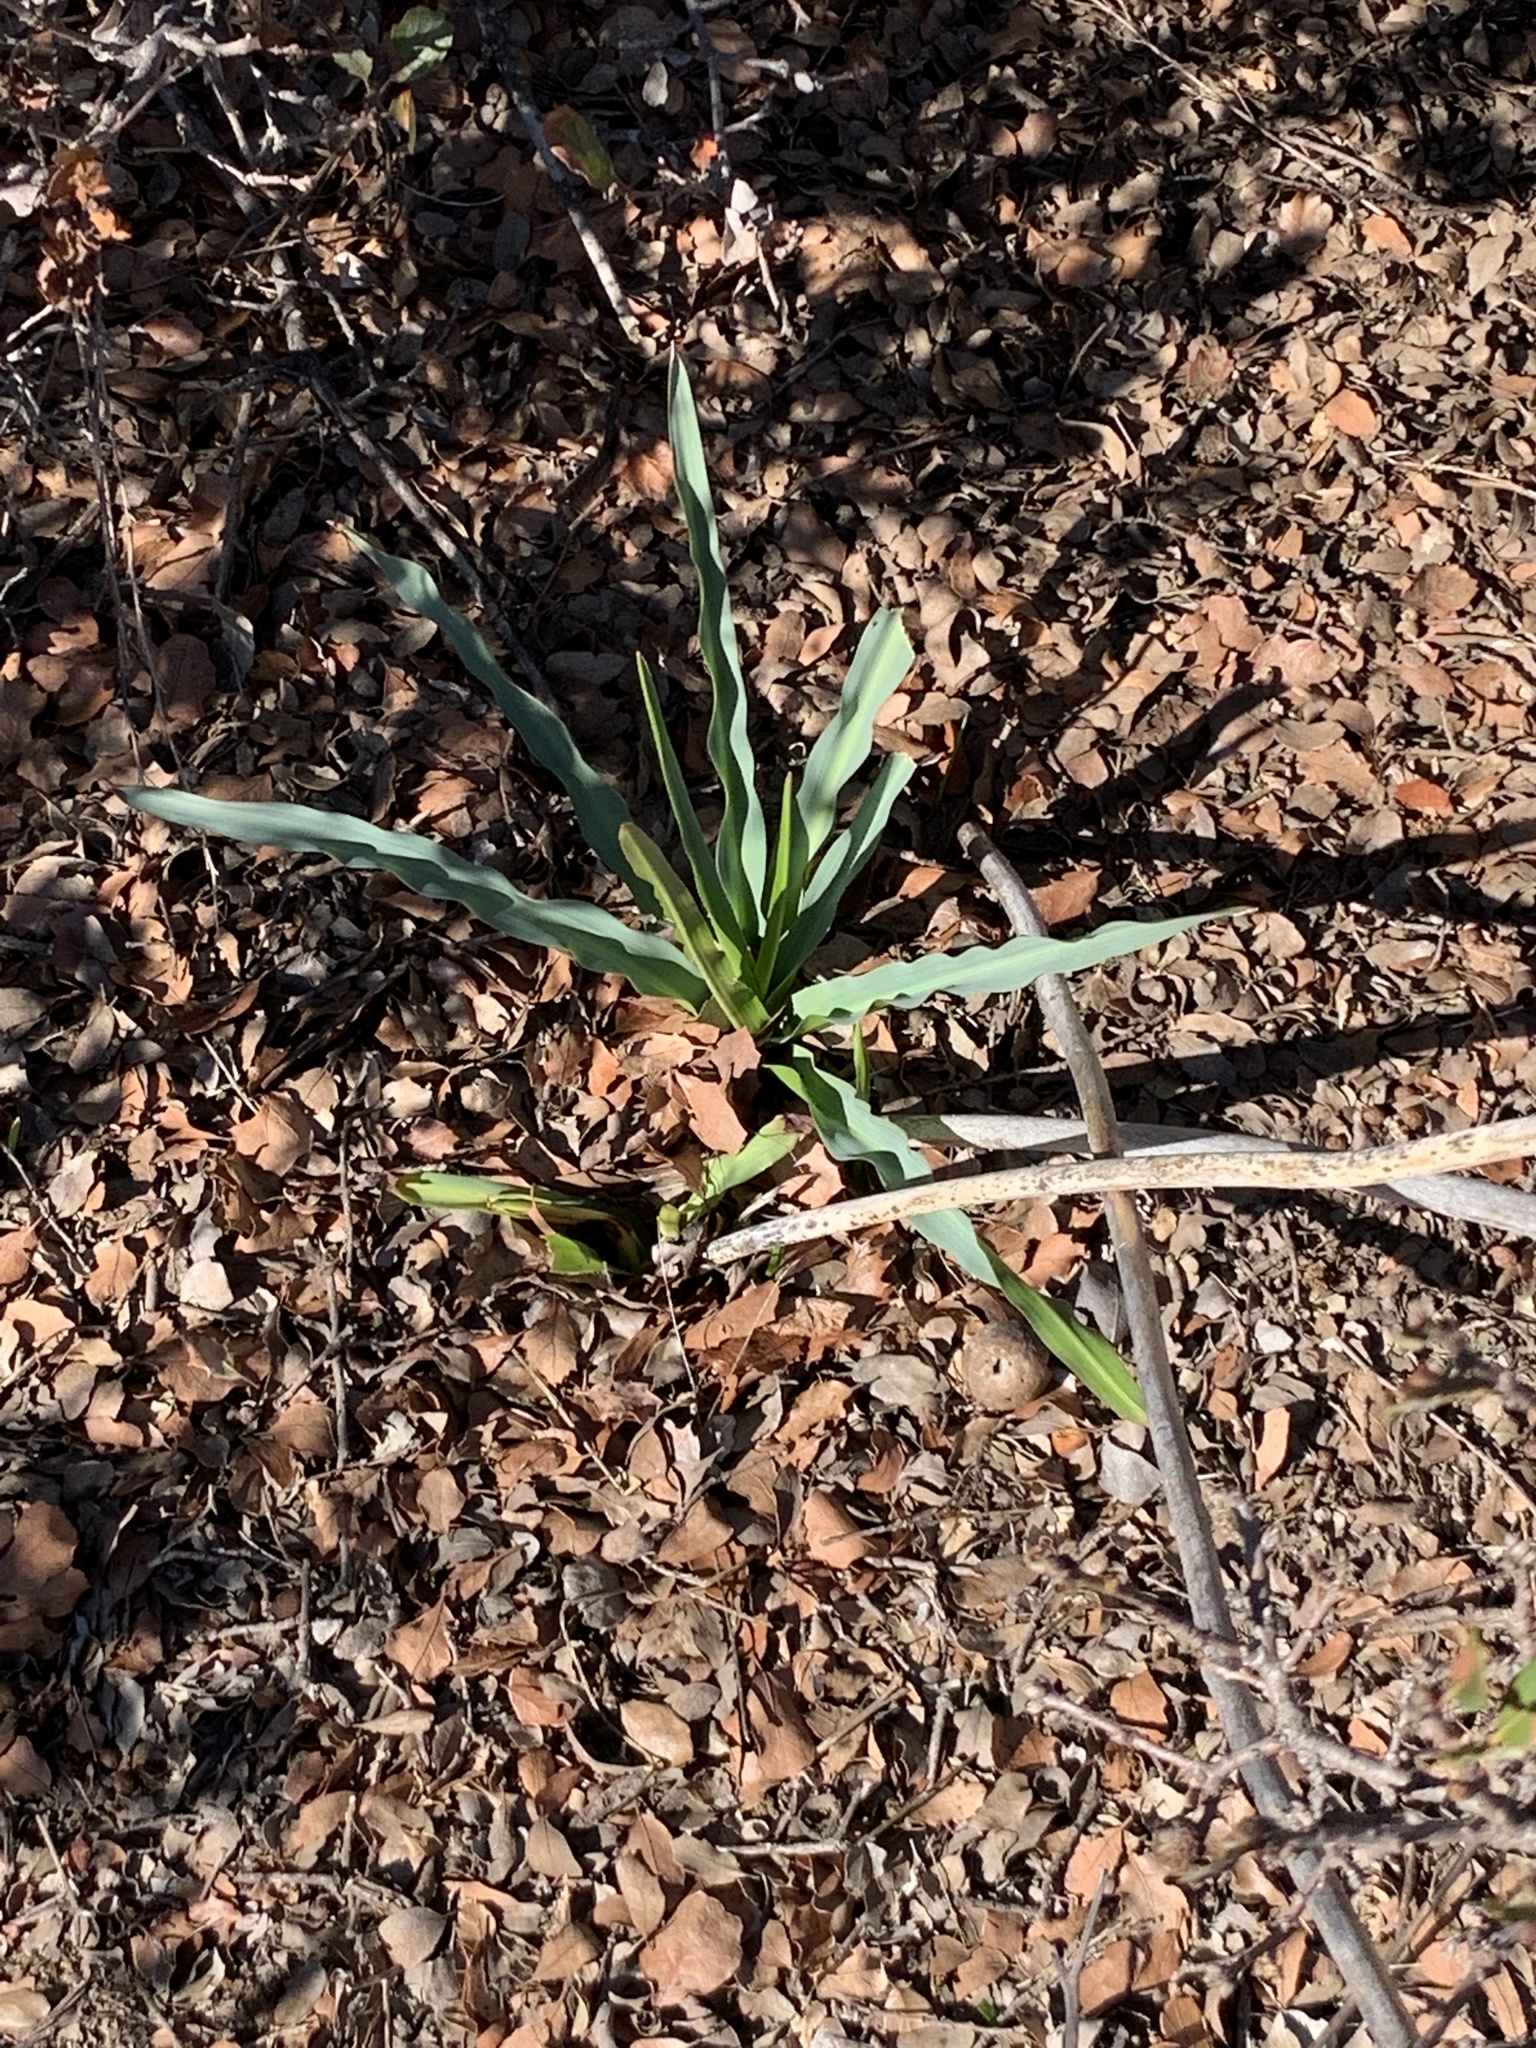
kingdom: Plantae
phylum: Tracheophyta
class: Liliopsida
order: Asparagales
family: Asparagaceae
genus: Chlorogalum
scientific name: Chlorogalum pomeridianum
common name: Amole
